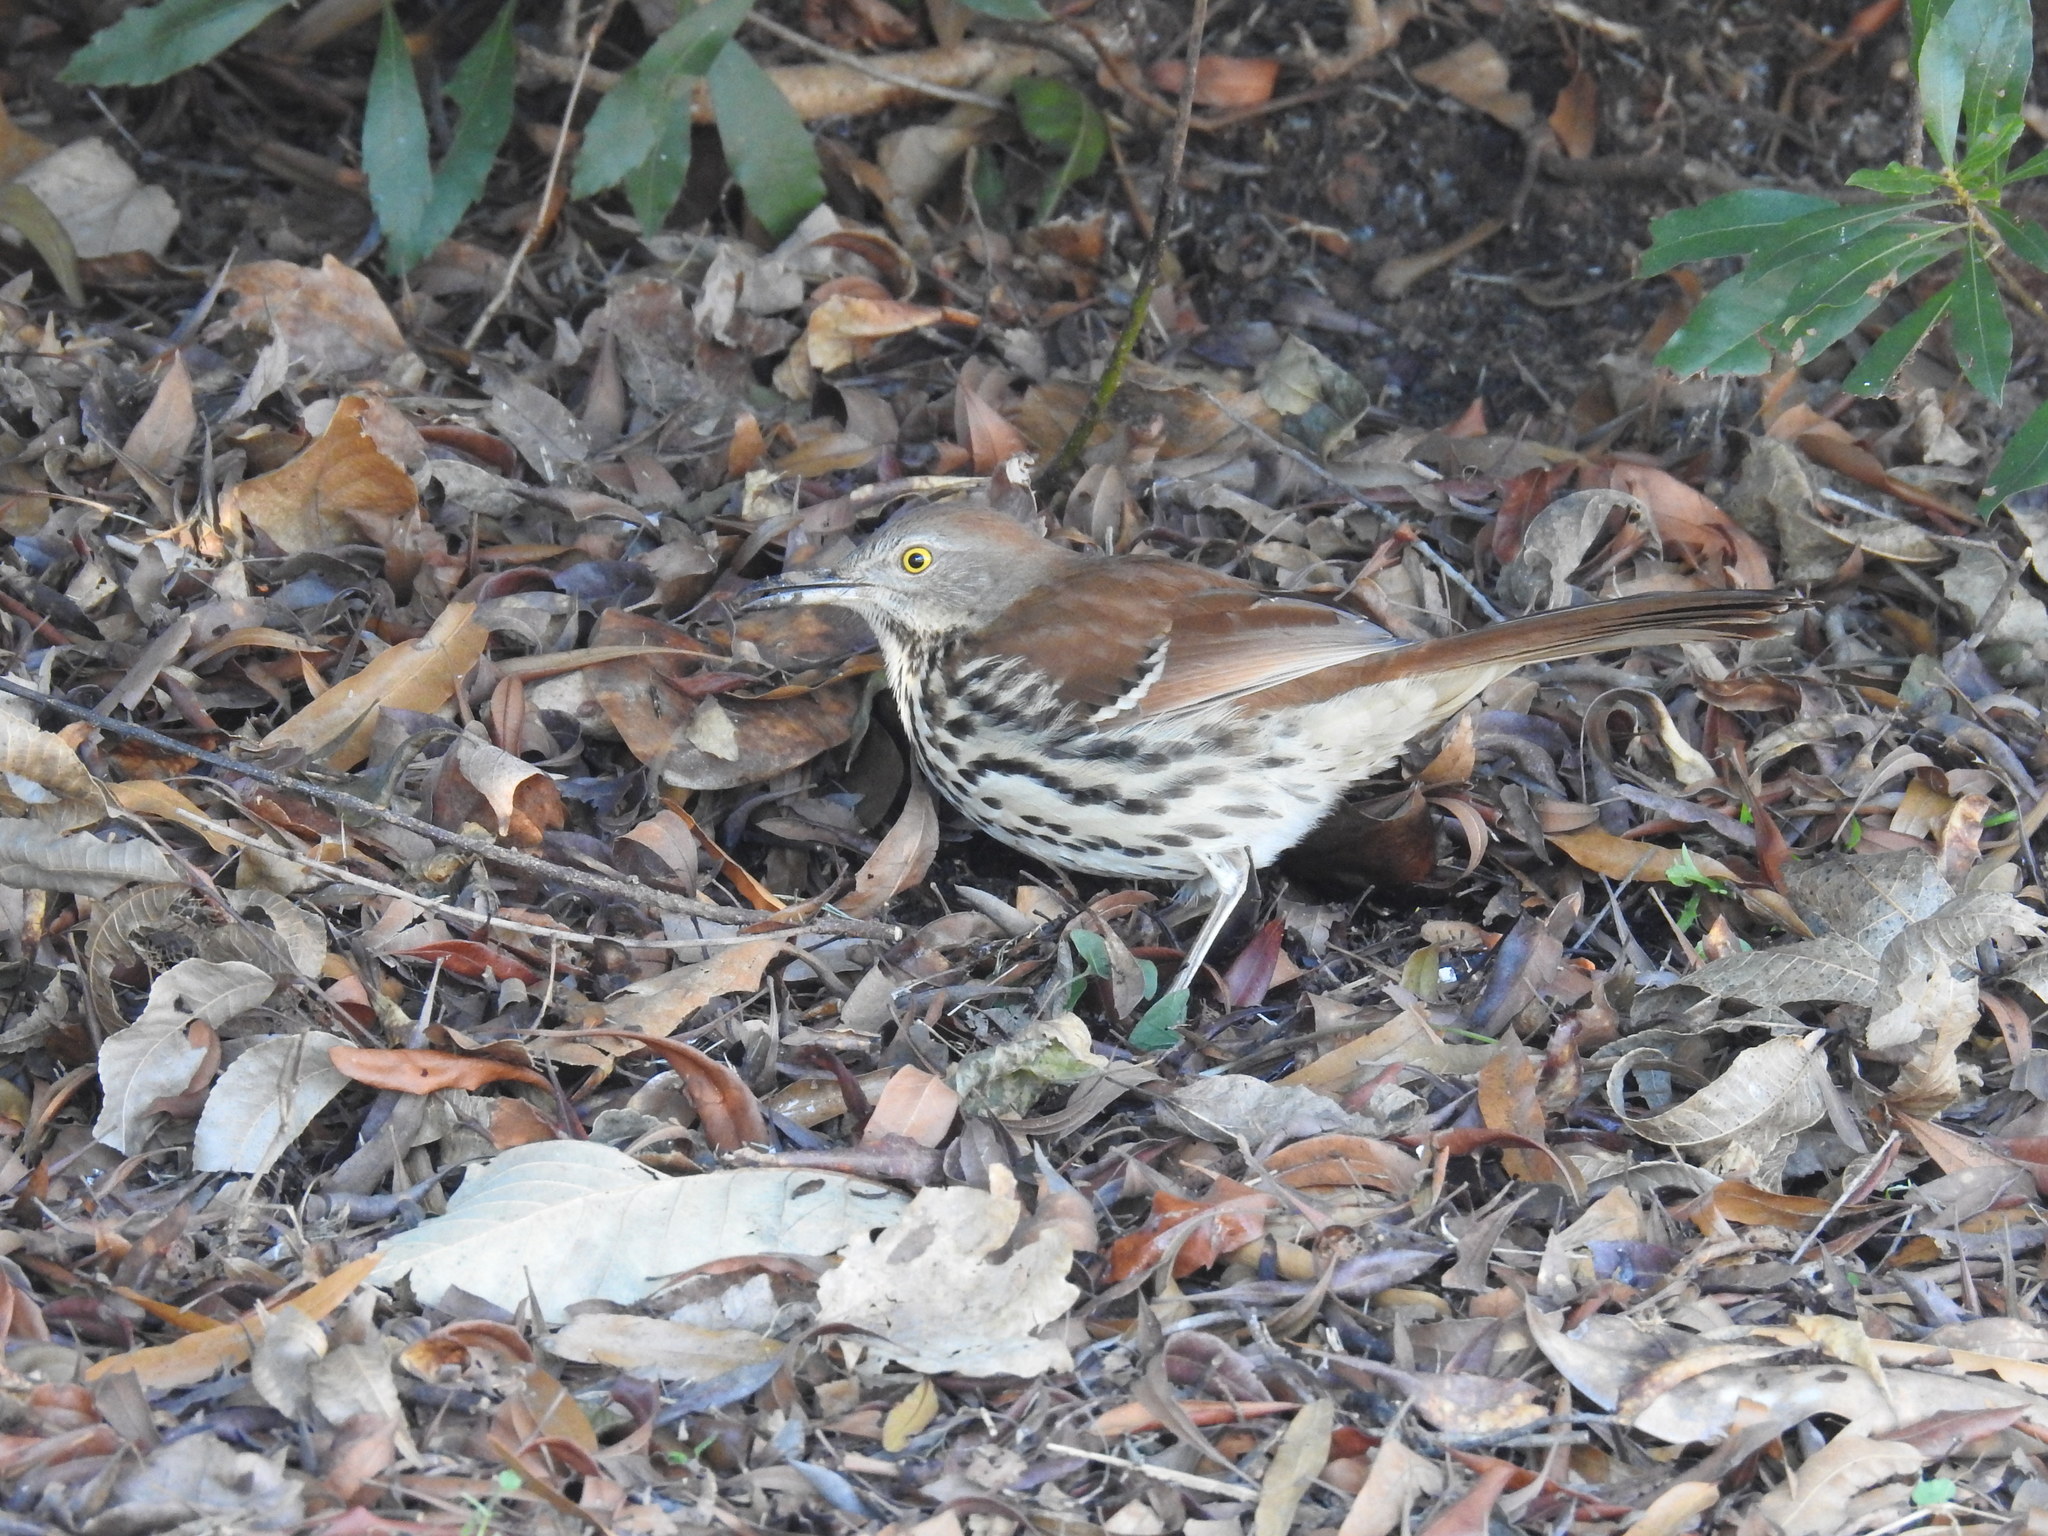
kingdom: Animalia
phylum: Chordata
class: Aves
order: Passeriformes
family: Mimidae
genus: Toxostoma
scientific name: Toxostoma rufum
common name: Brown thrasher
